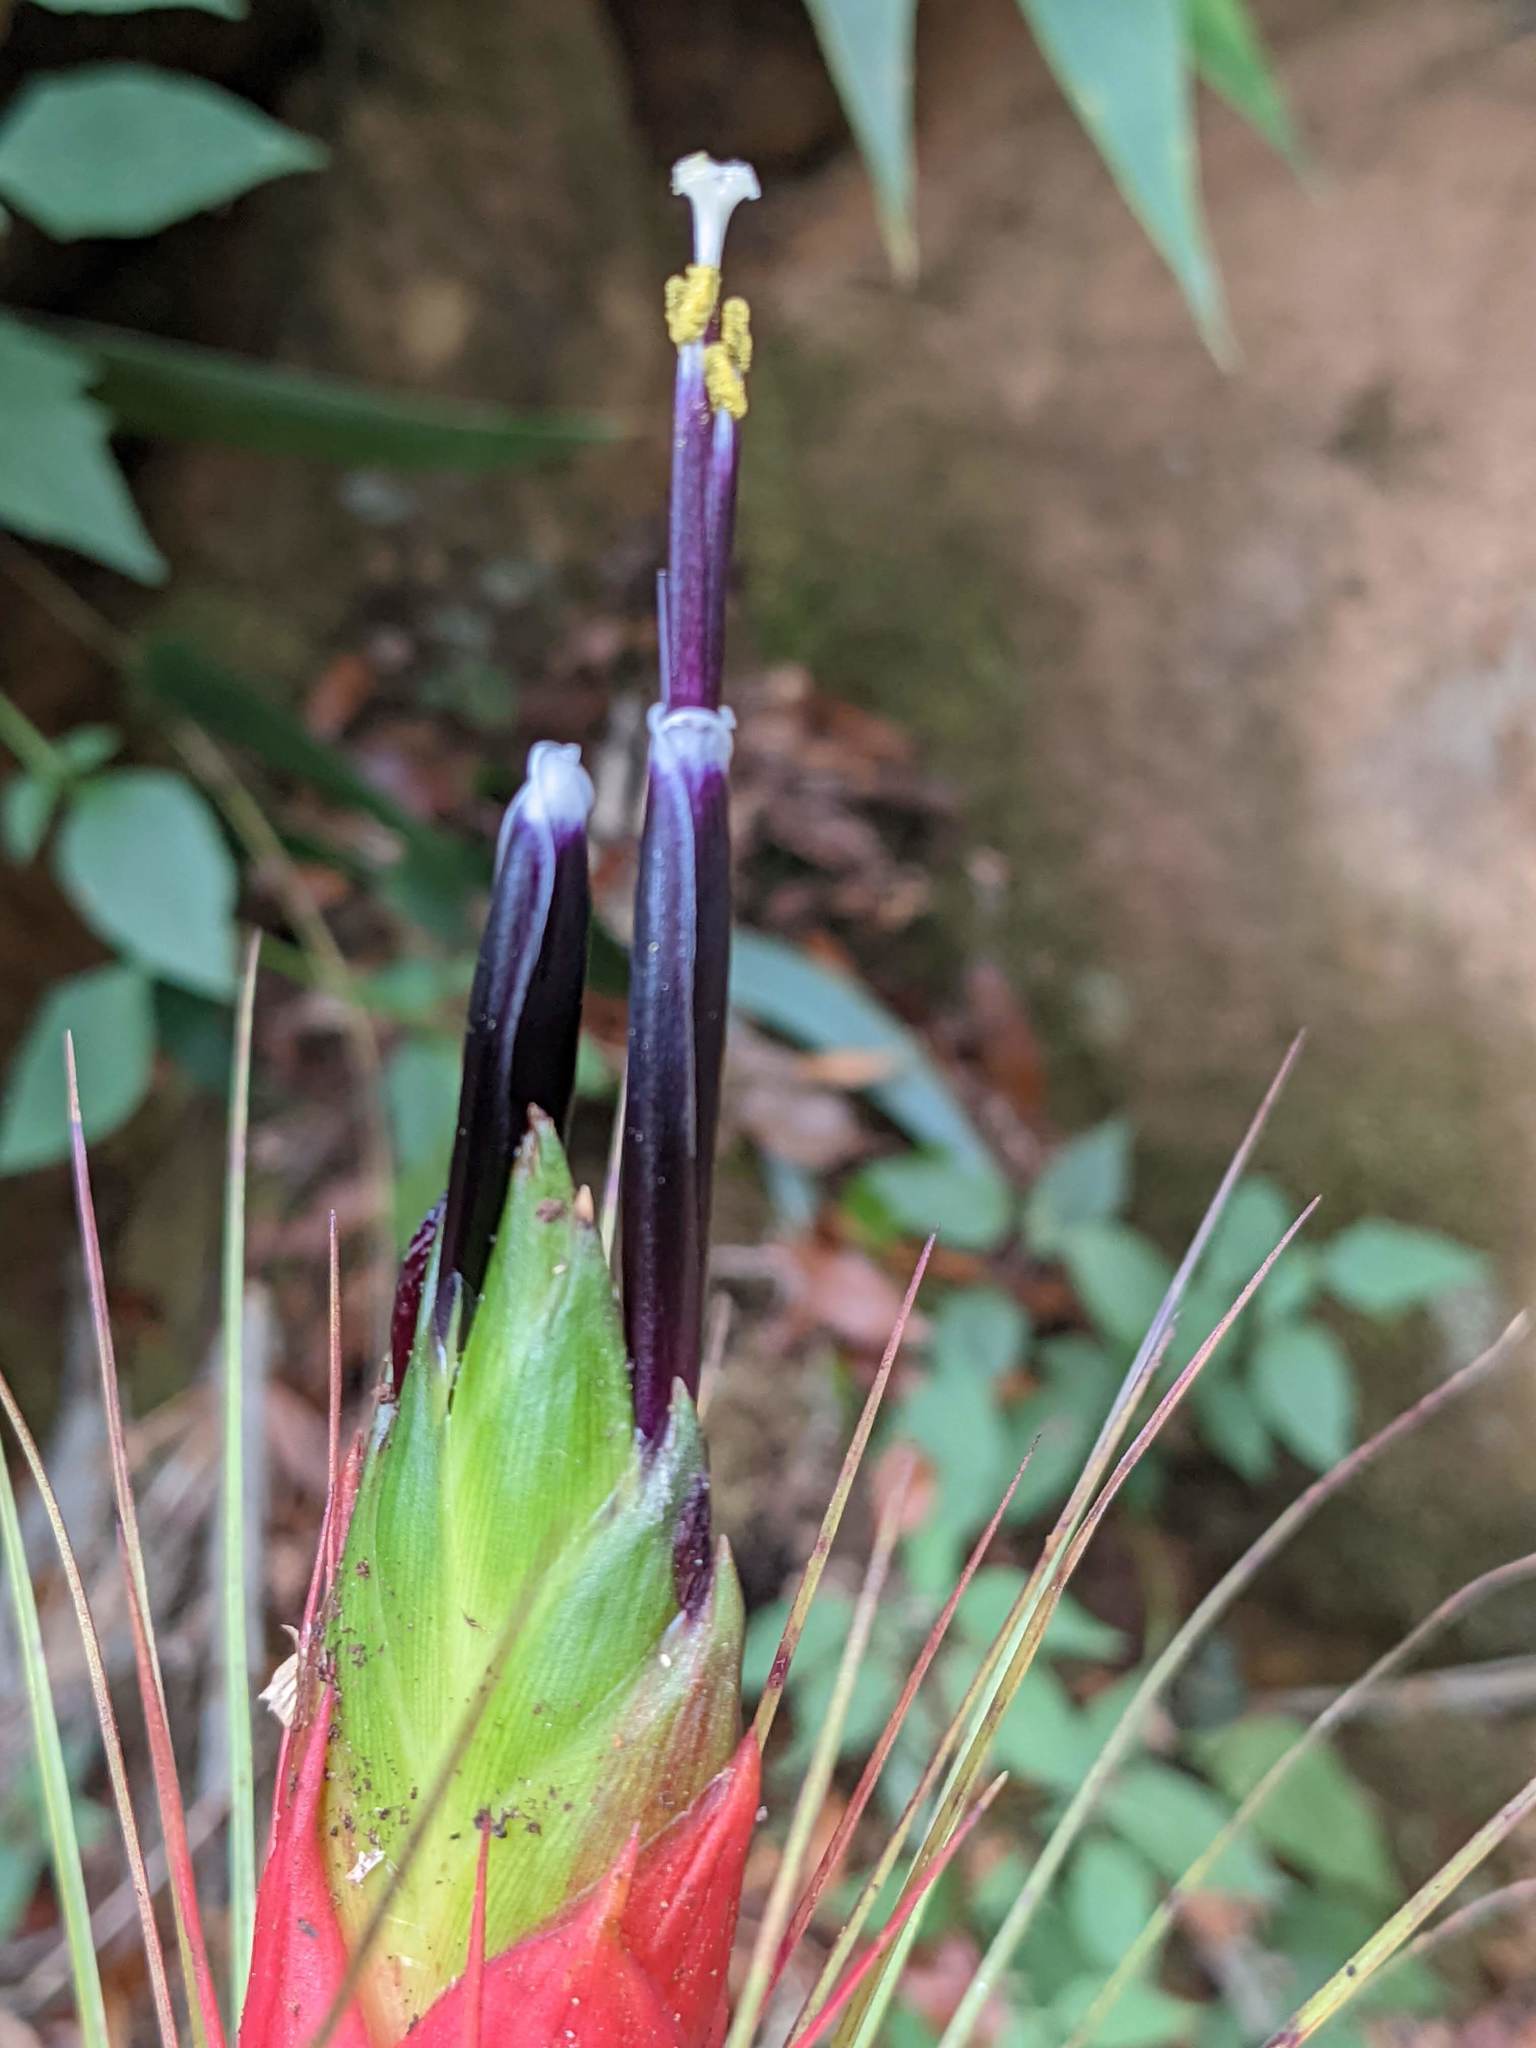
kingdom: Plantae
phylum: Tracheophyta
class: Liliopsida
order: Poales
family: Bromeliaceae
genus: Tillandsia
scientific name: Tillandsia punctulata
